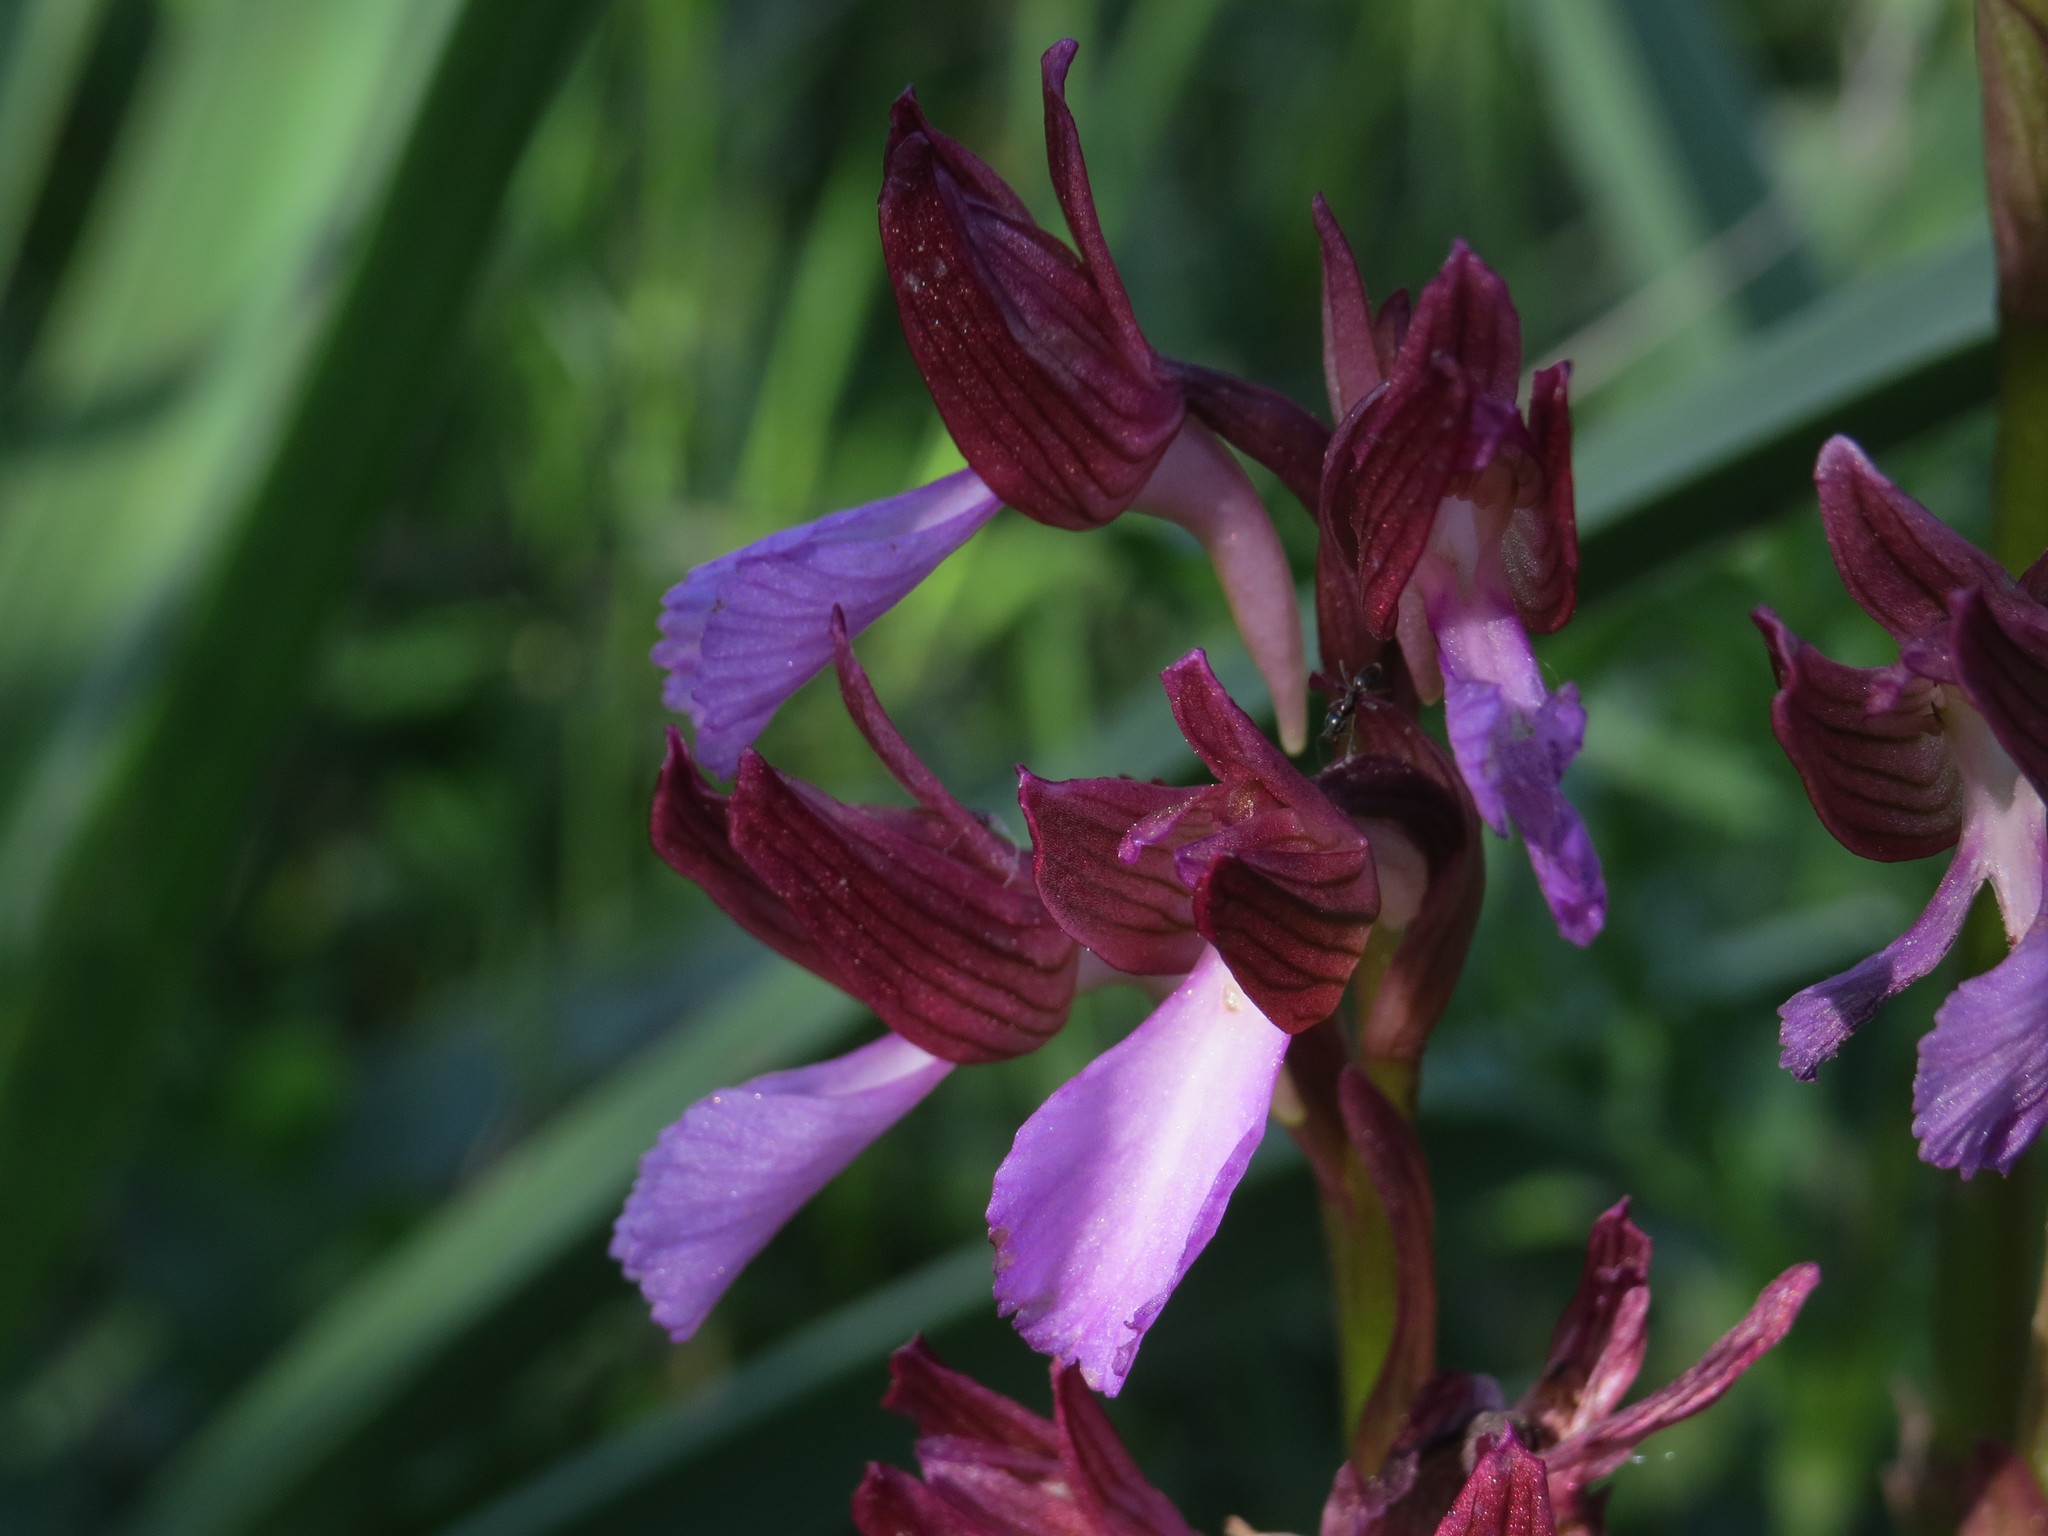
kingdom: Plantae
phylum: Tracheophyta
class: Liliopsida
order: Asparagales
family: Orchidaceae
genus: Anacamptis
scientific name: Anacamptis papilionacea
